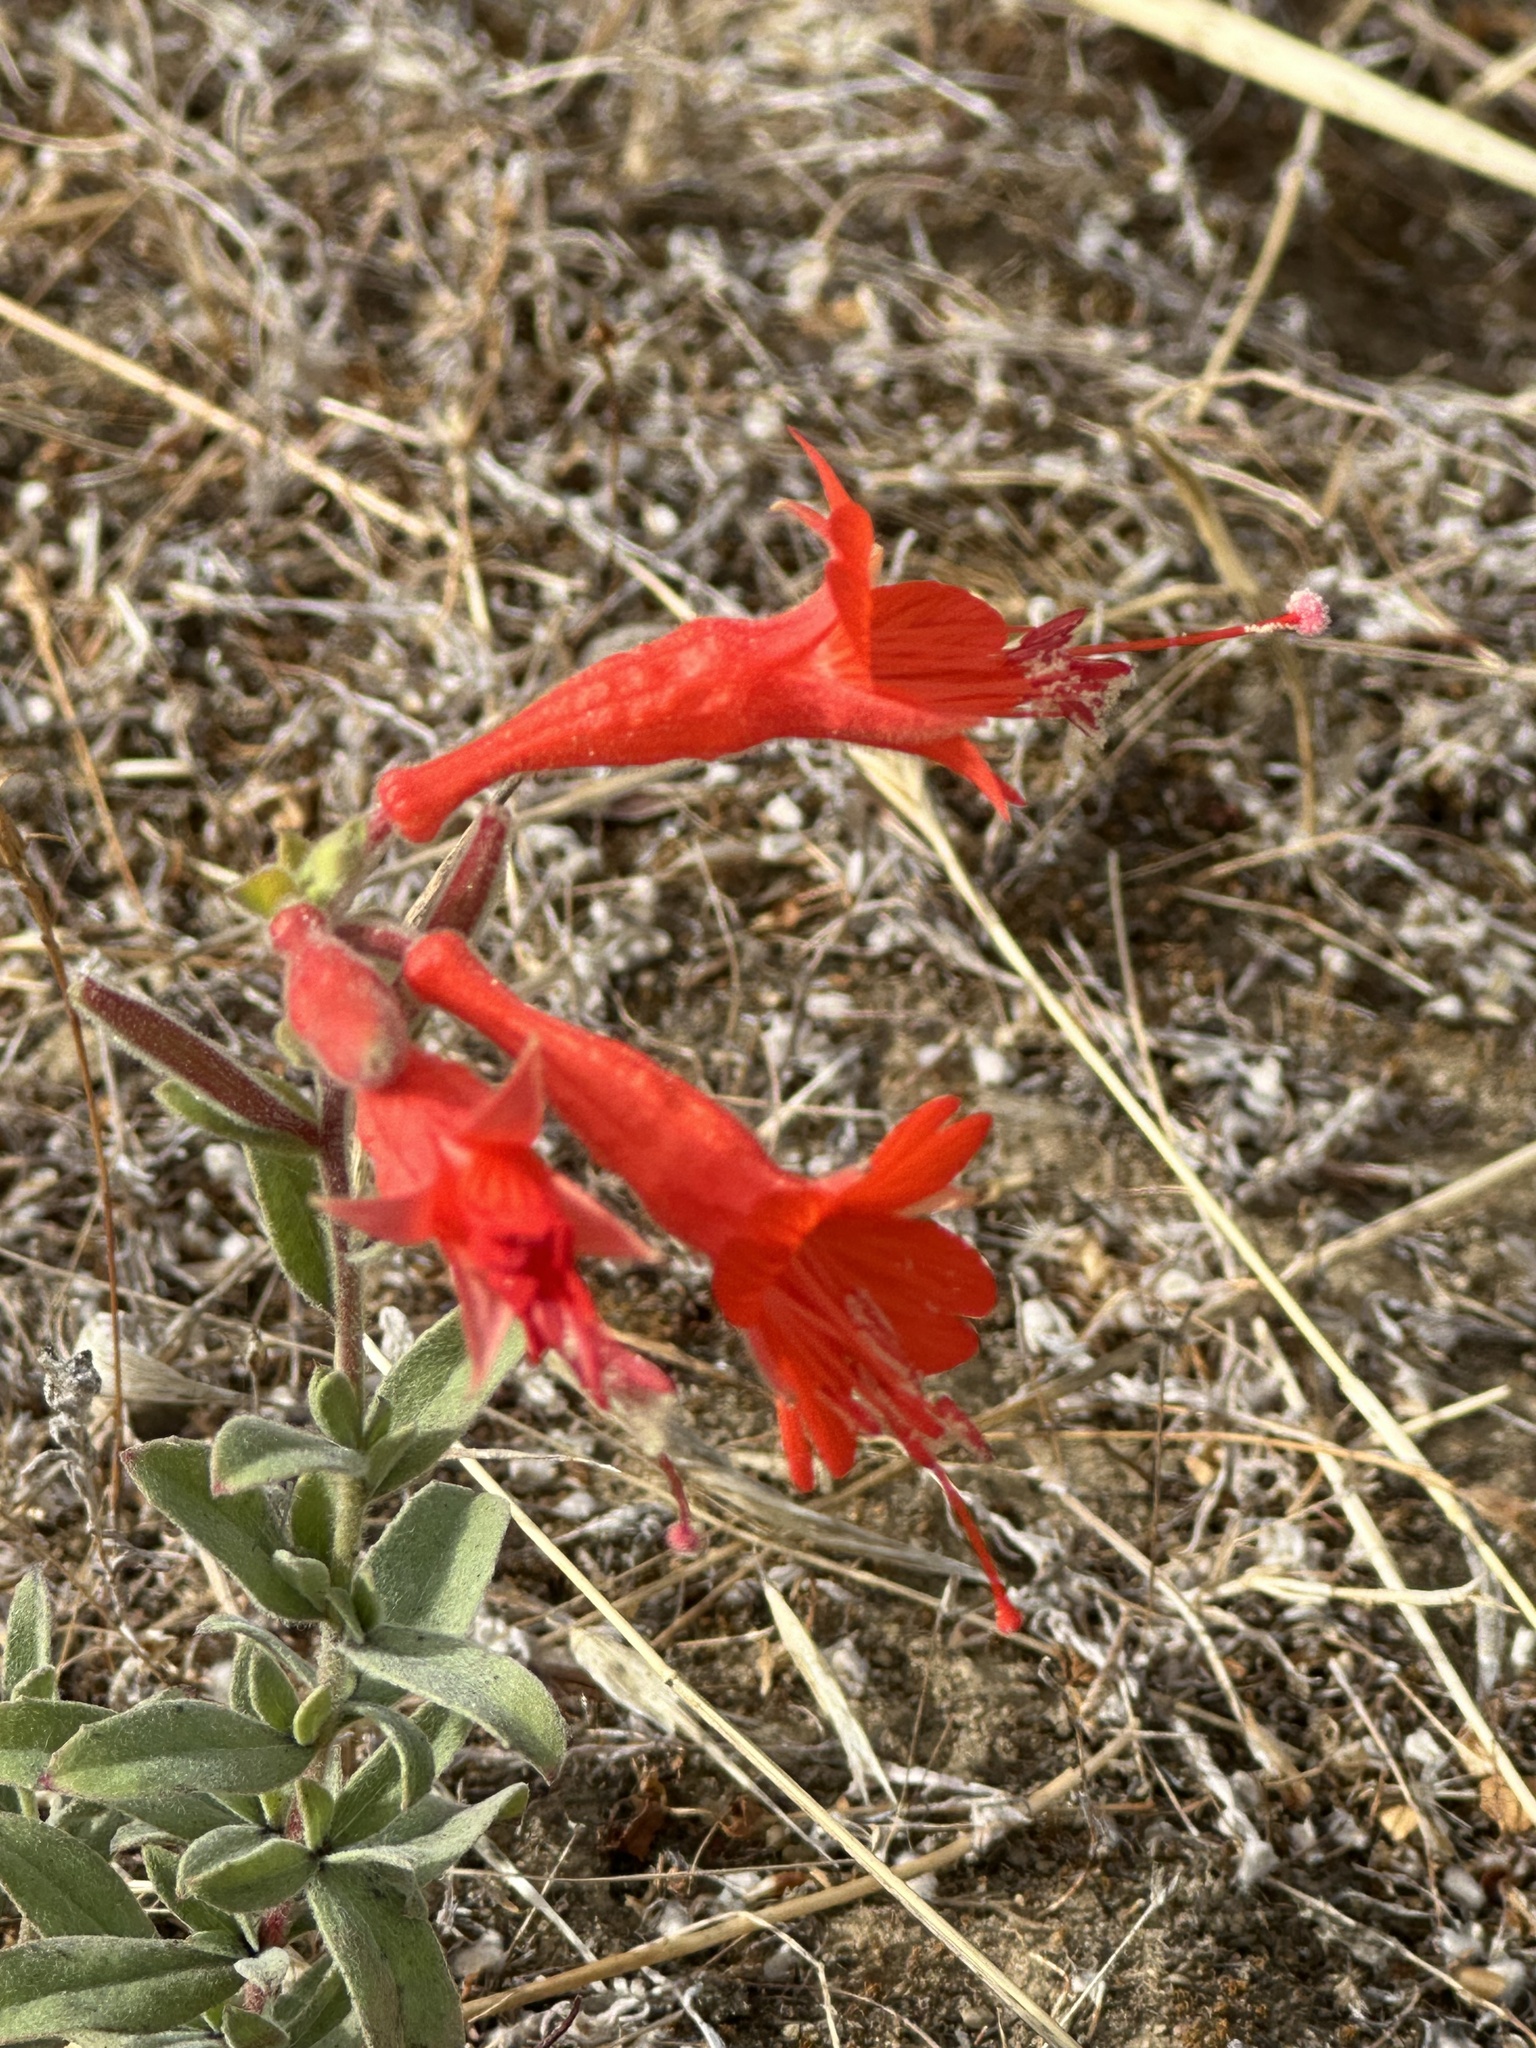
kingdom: Plantae
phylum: Tracheophyta
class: Magnoliopsida
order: Myrtales
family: Onagraceae
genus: Epilobium
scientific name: Epilobium canum
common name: California-fuchsia
